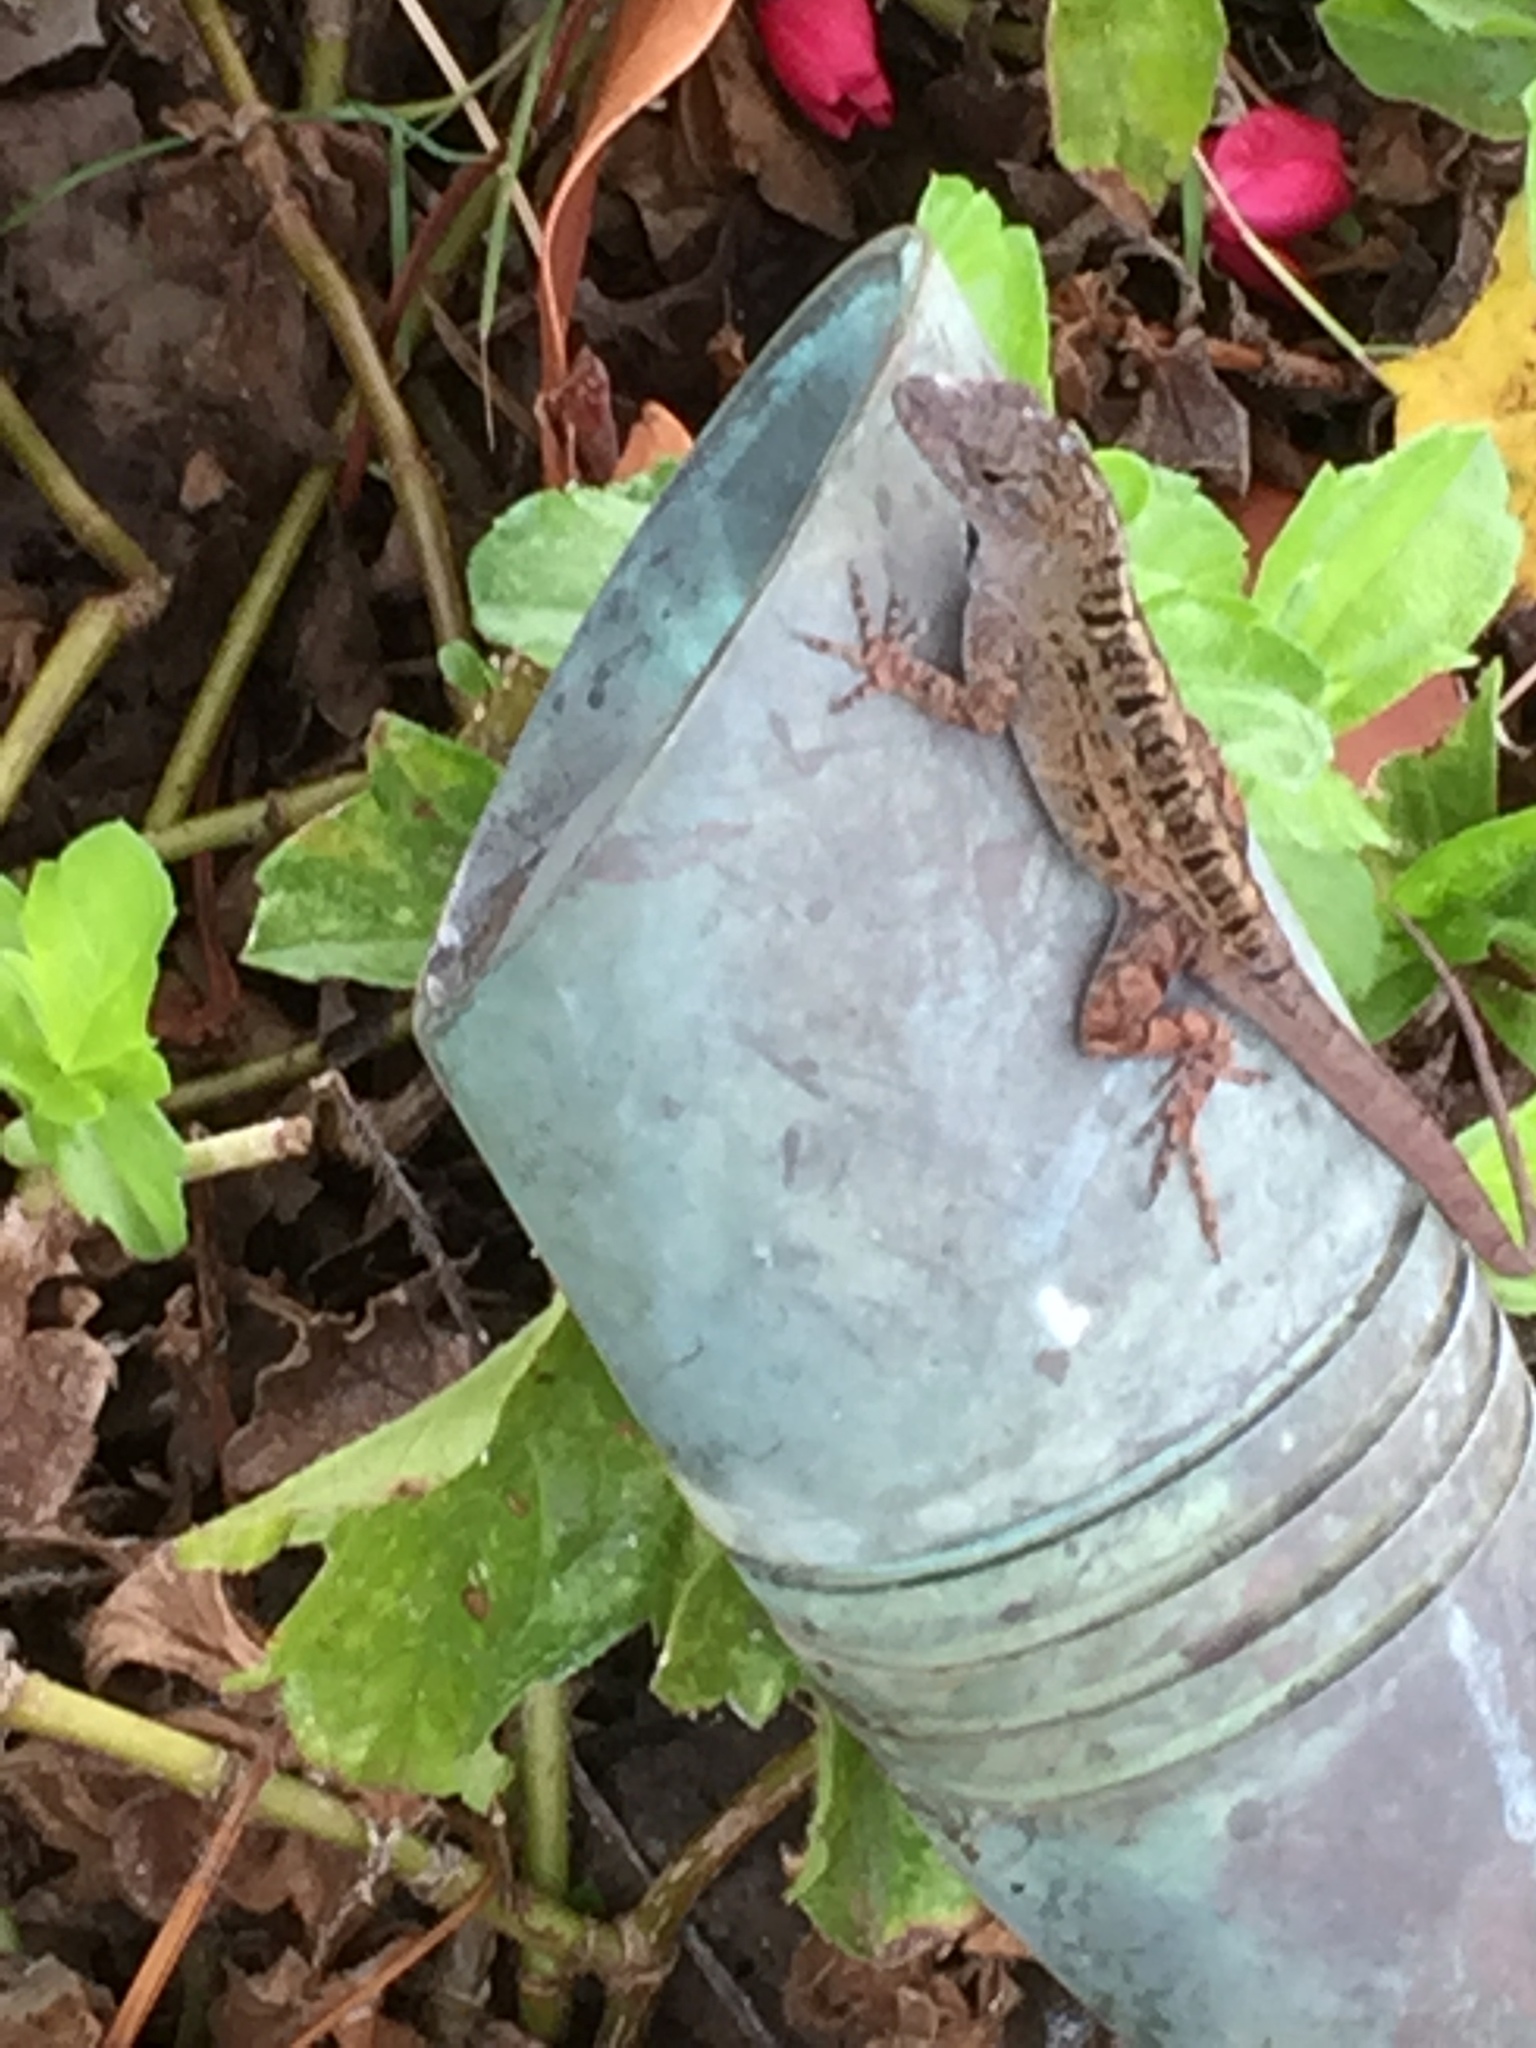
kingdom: Animalia
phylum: Chordata
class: Squamata
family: Dactyloidae
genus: Anolis
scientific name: Anolis sagrei
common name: Brown anole
